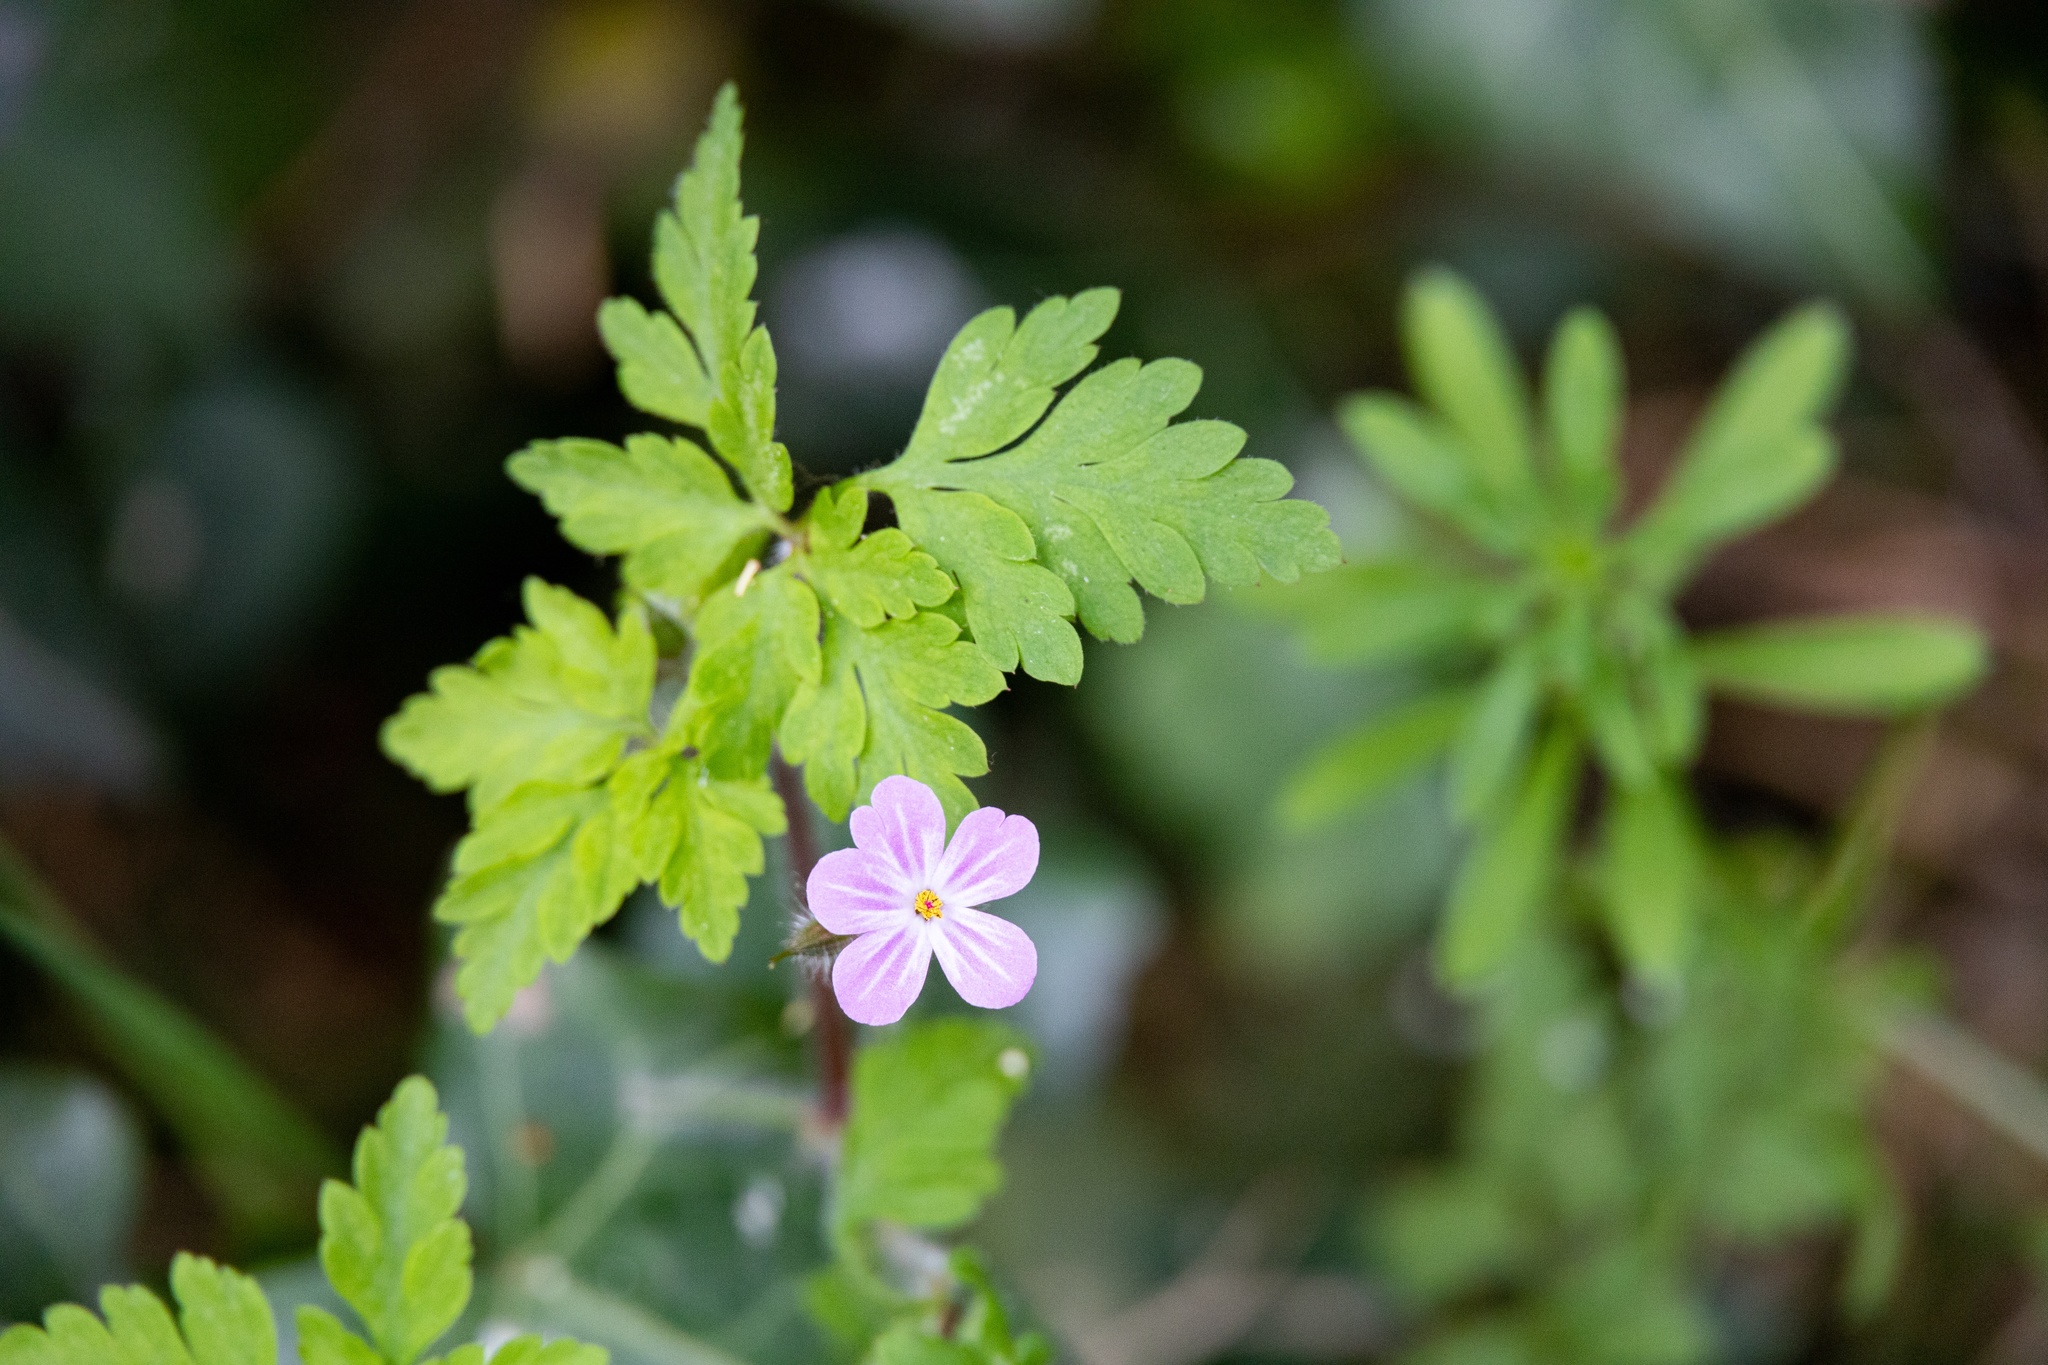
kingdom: Plantae
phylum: Tracheophyta
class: Magnoliopsida
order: Geraniales
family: Geraniaceae
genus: Geranium
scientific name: Geranium robertianum
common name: Herb-robert
